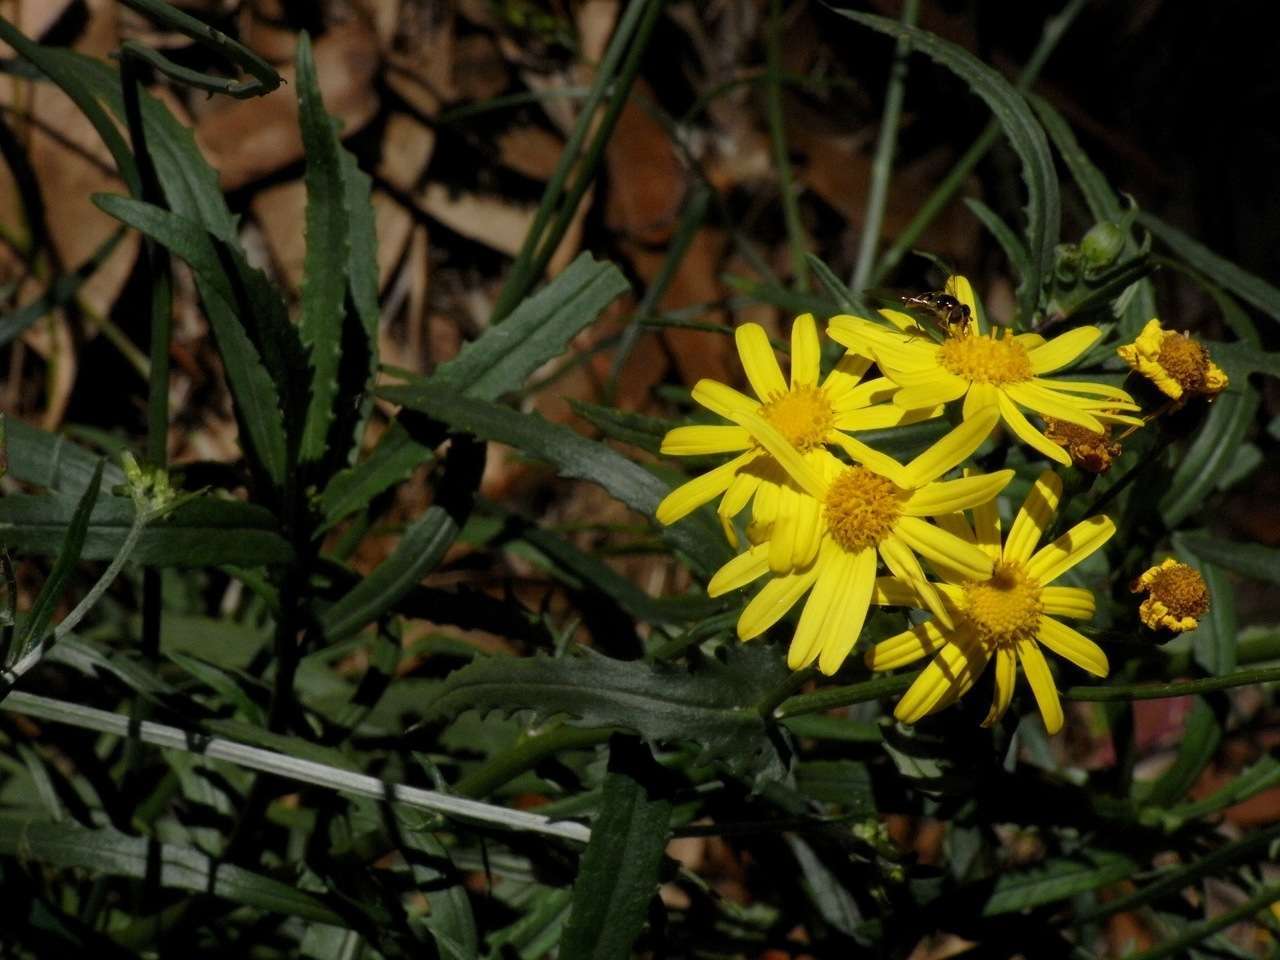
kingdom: Plantae
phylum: Tracheophyta
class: Magnoliopsida
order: Asterales
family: Asteraceae
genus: Senecio
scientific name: Senecio pinnatifolius
